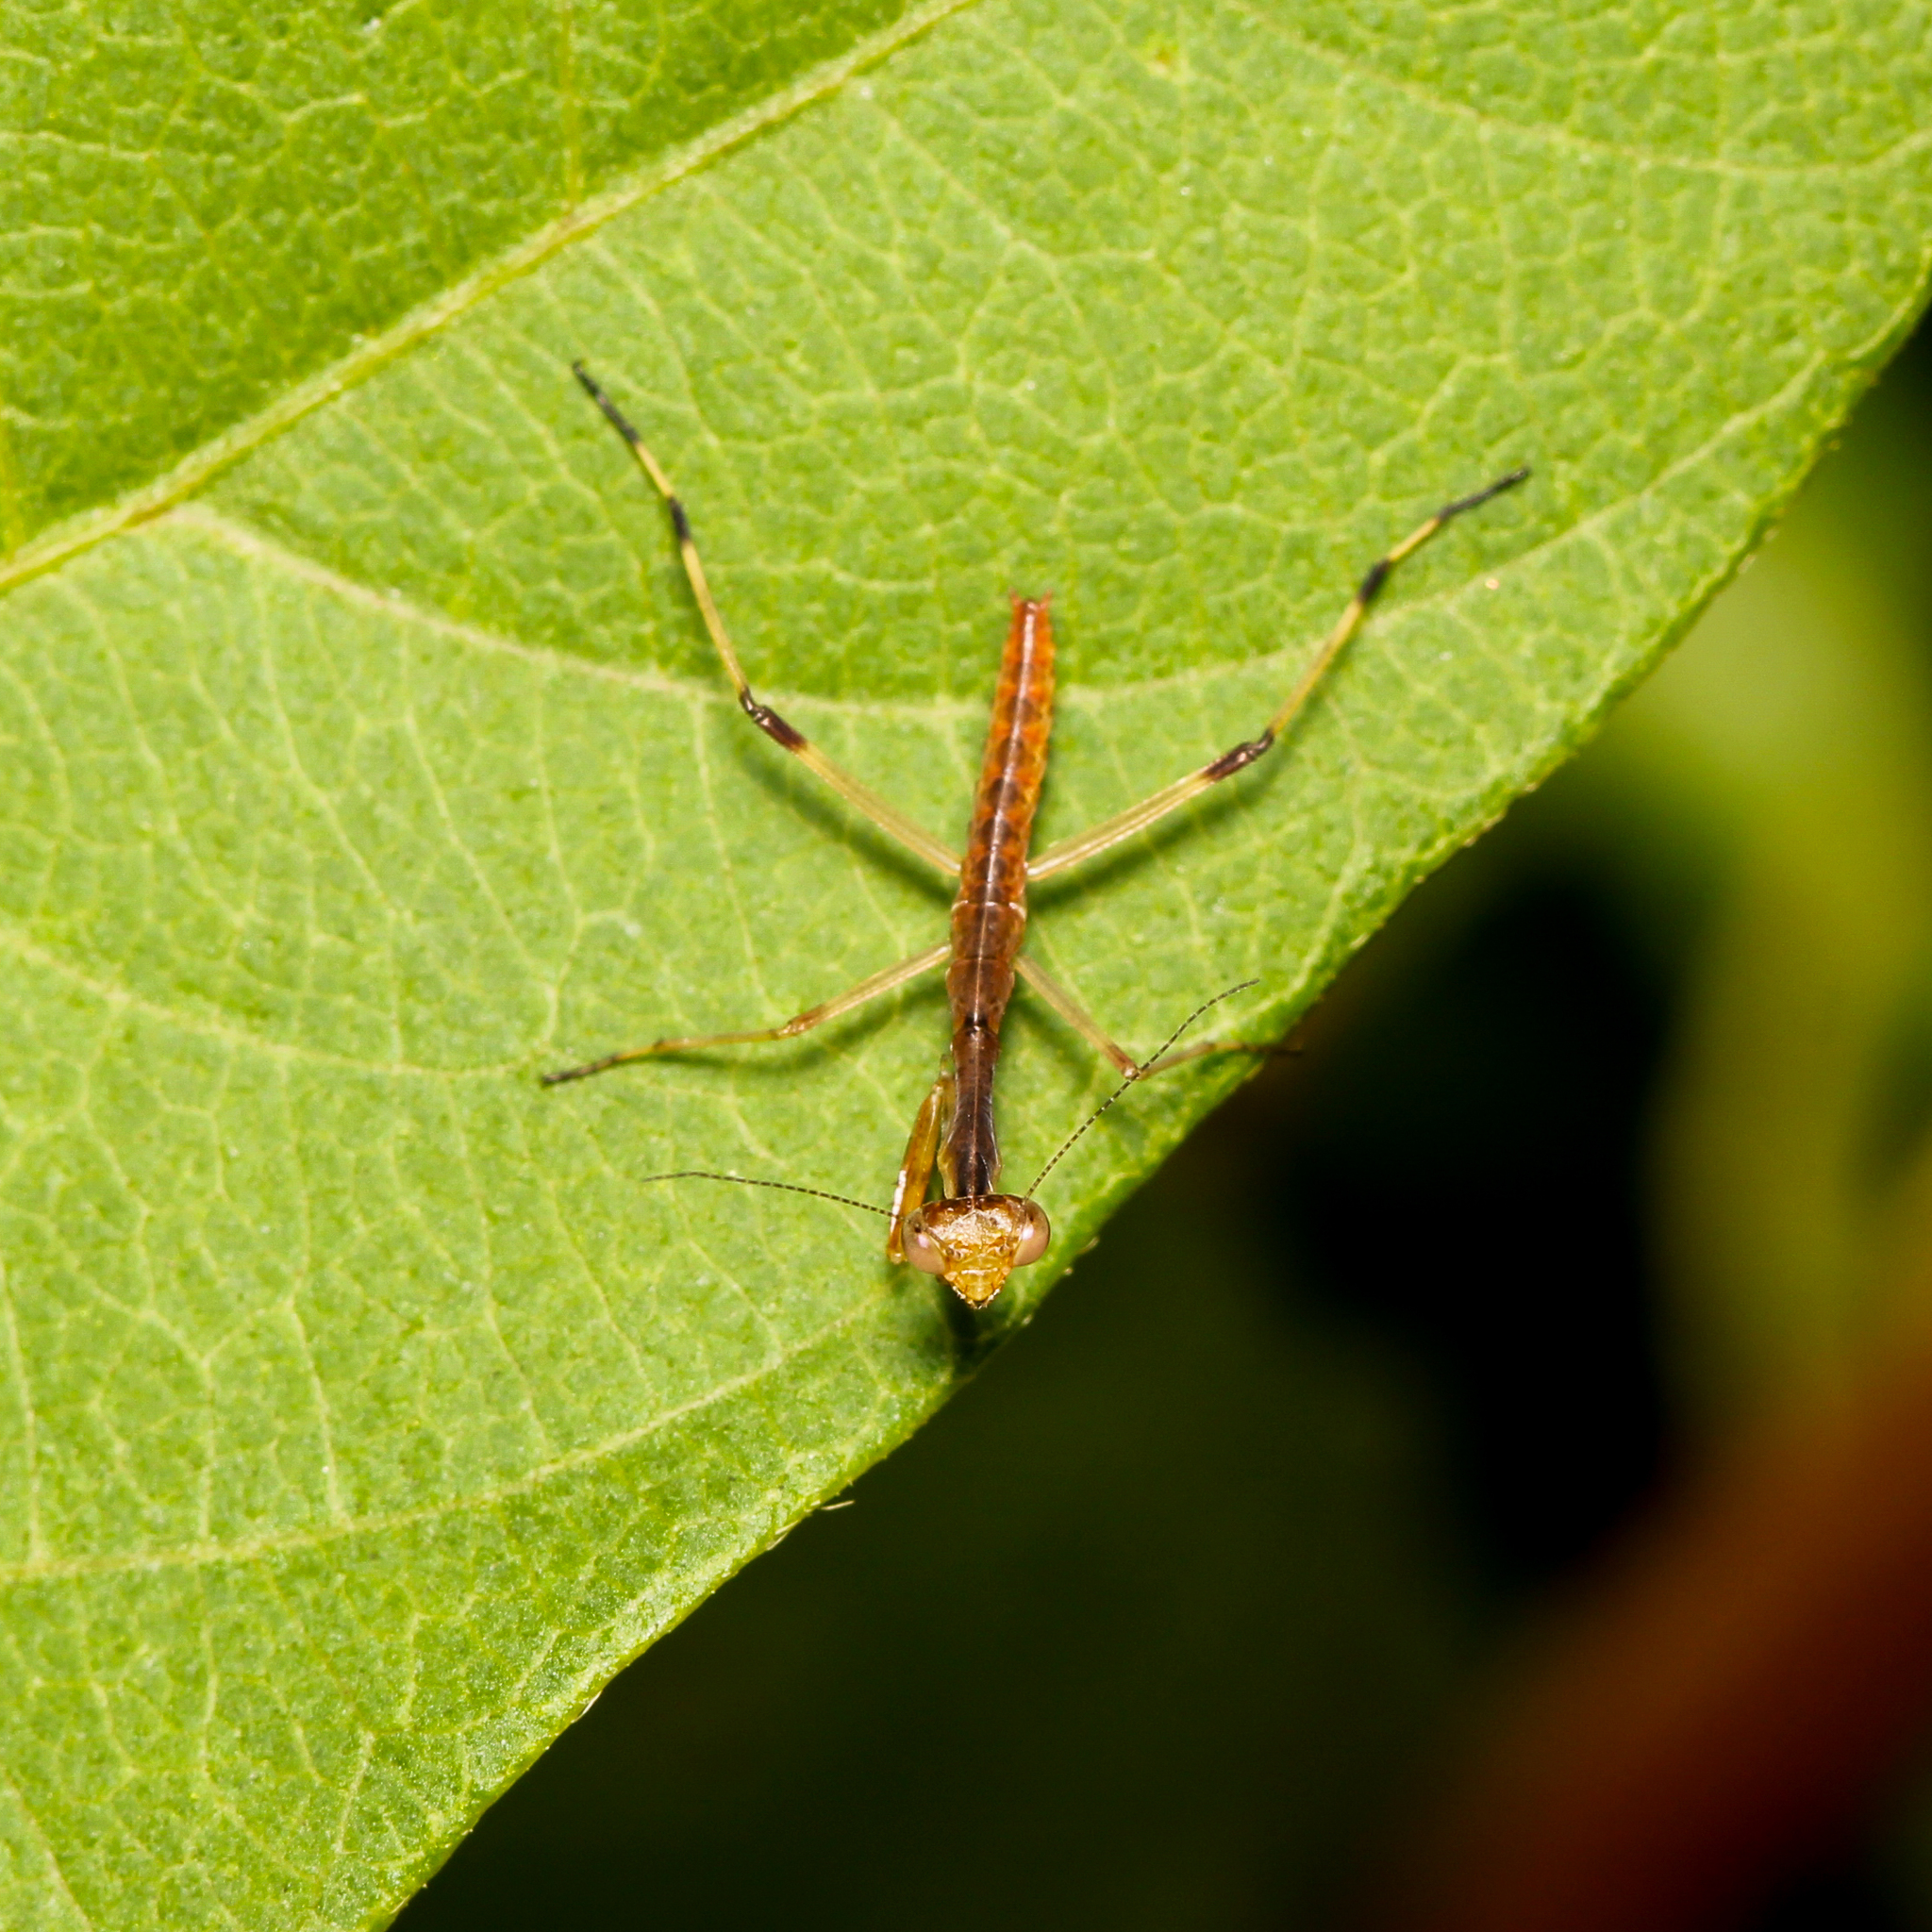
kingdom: Animalia
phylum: Arthropoda
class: Insecta
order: Mantodea
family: Mantidae
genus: Stagmomantis
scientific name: Stagmomantis carolina
